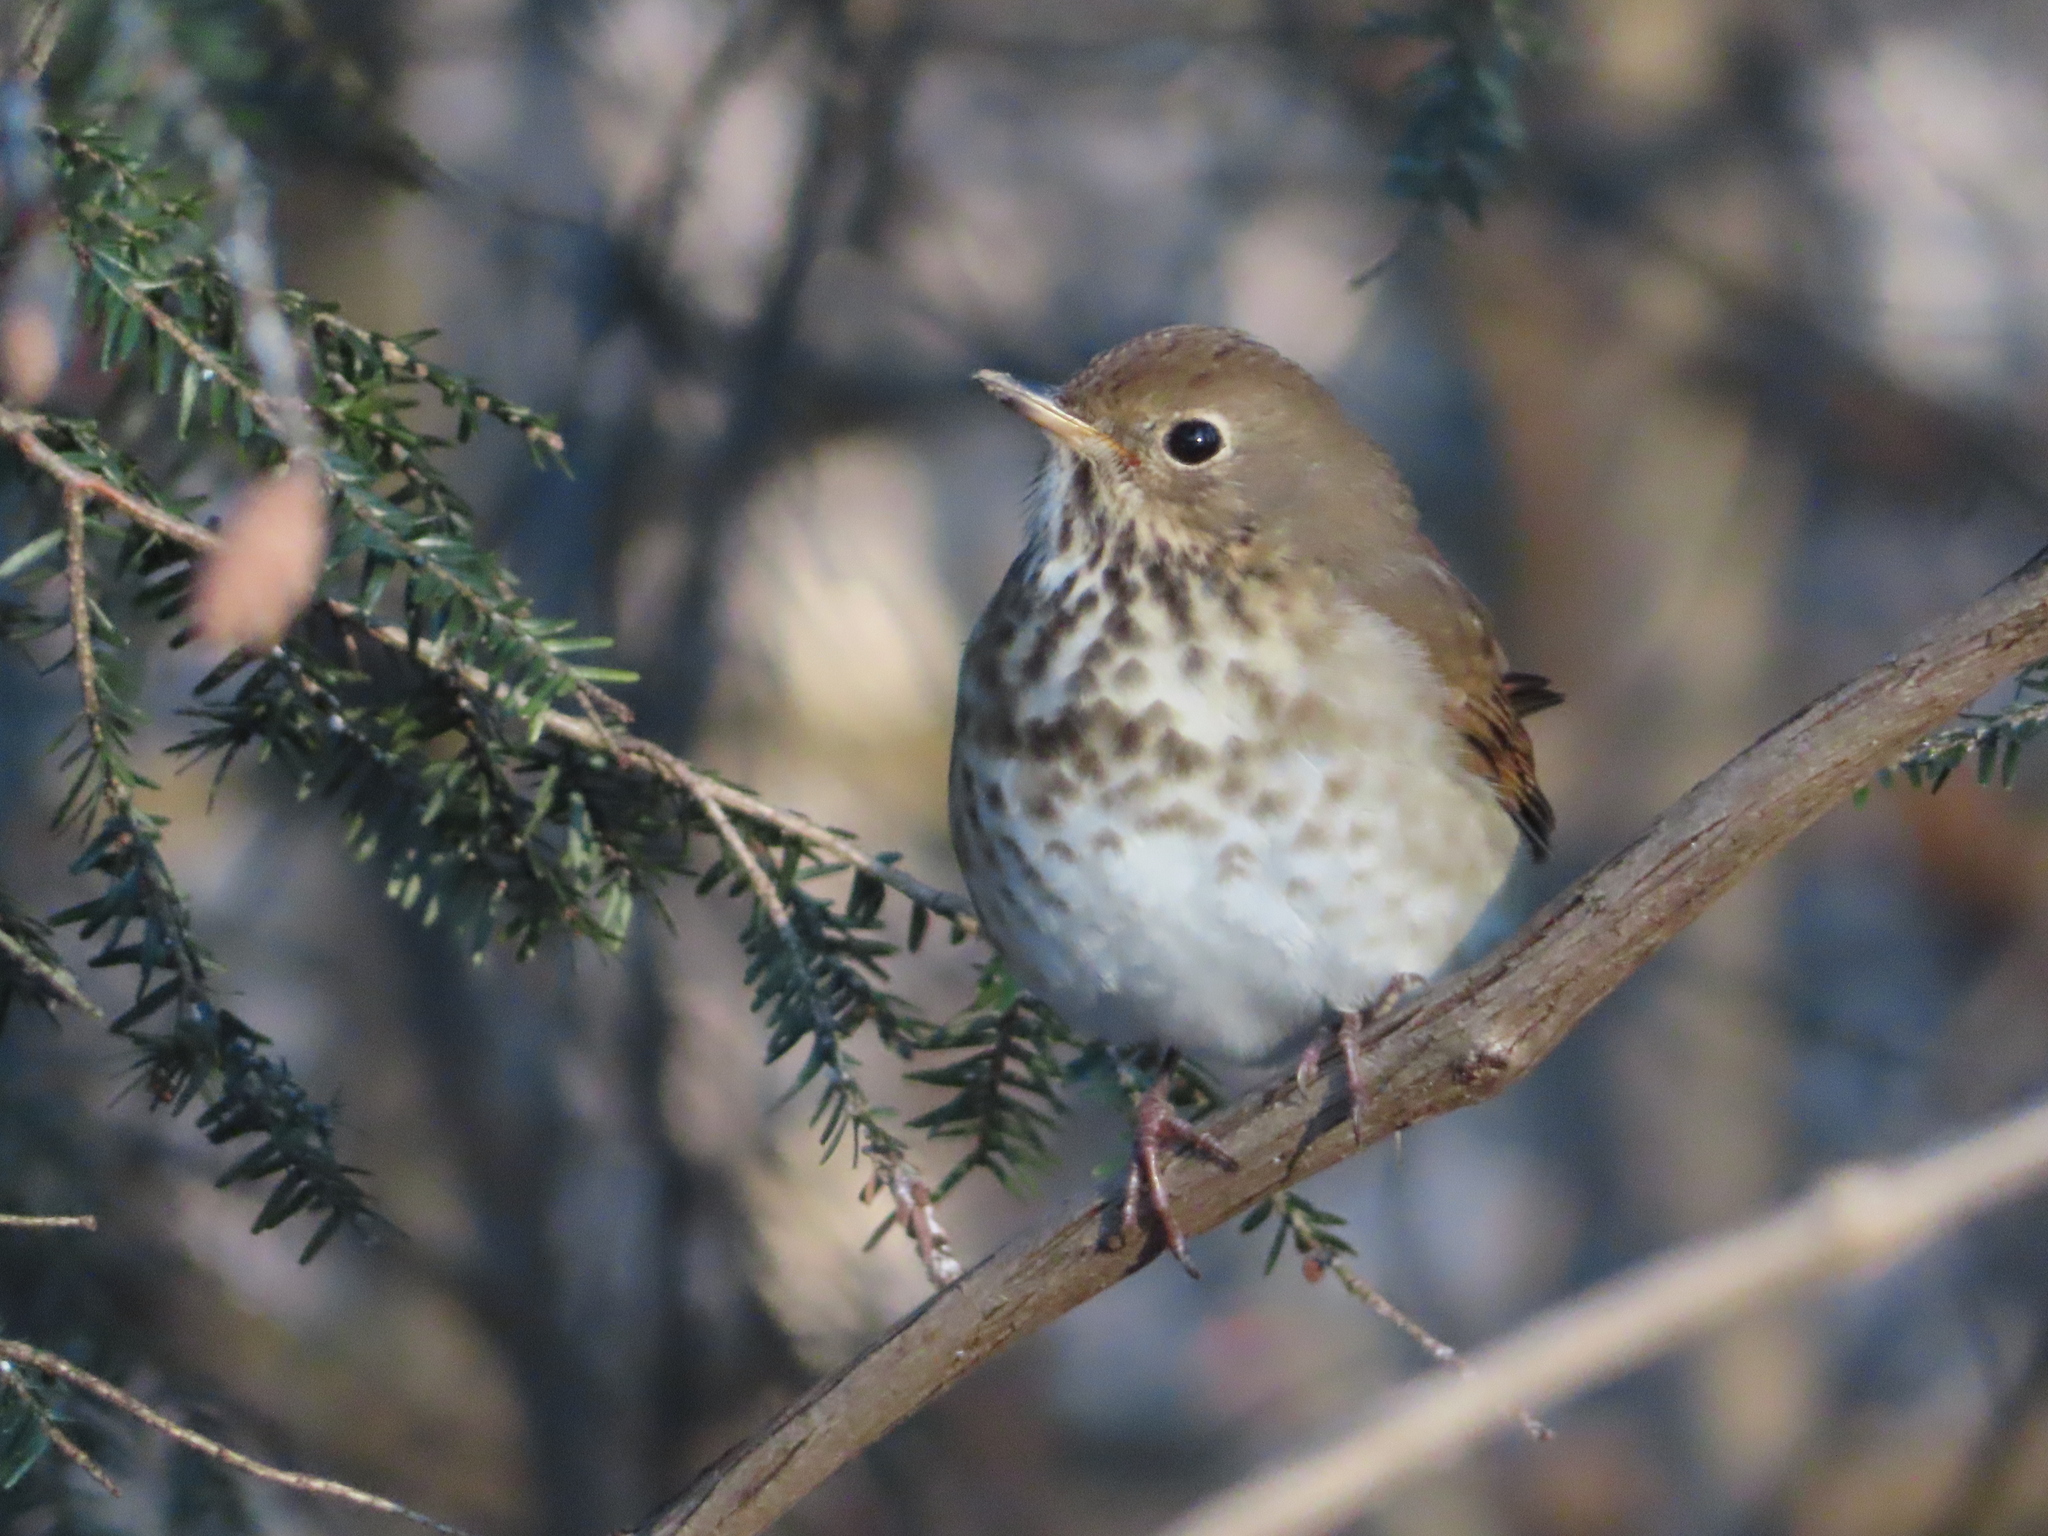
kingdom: Animalia
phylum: Chordata
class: Aves
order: Passeriformes
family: Turdidae
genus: Catharus
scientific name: Catharus guttatus
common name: Hermit thrush
